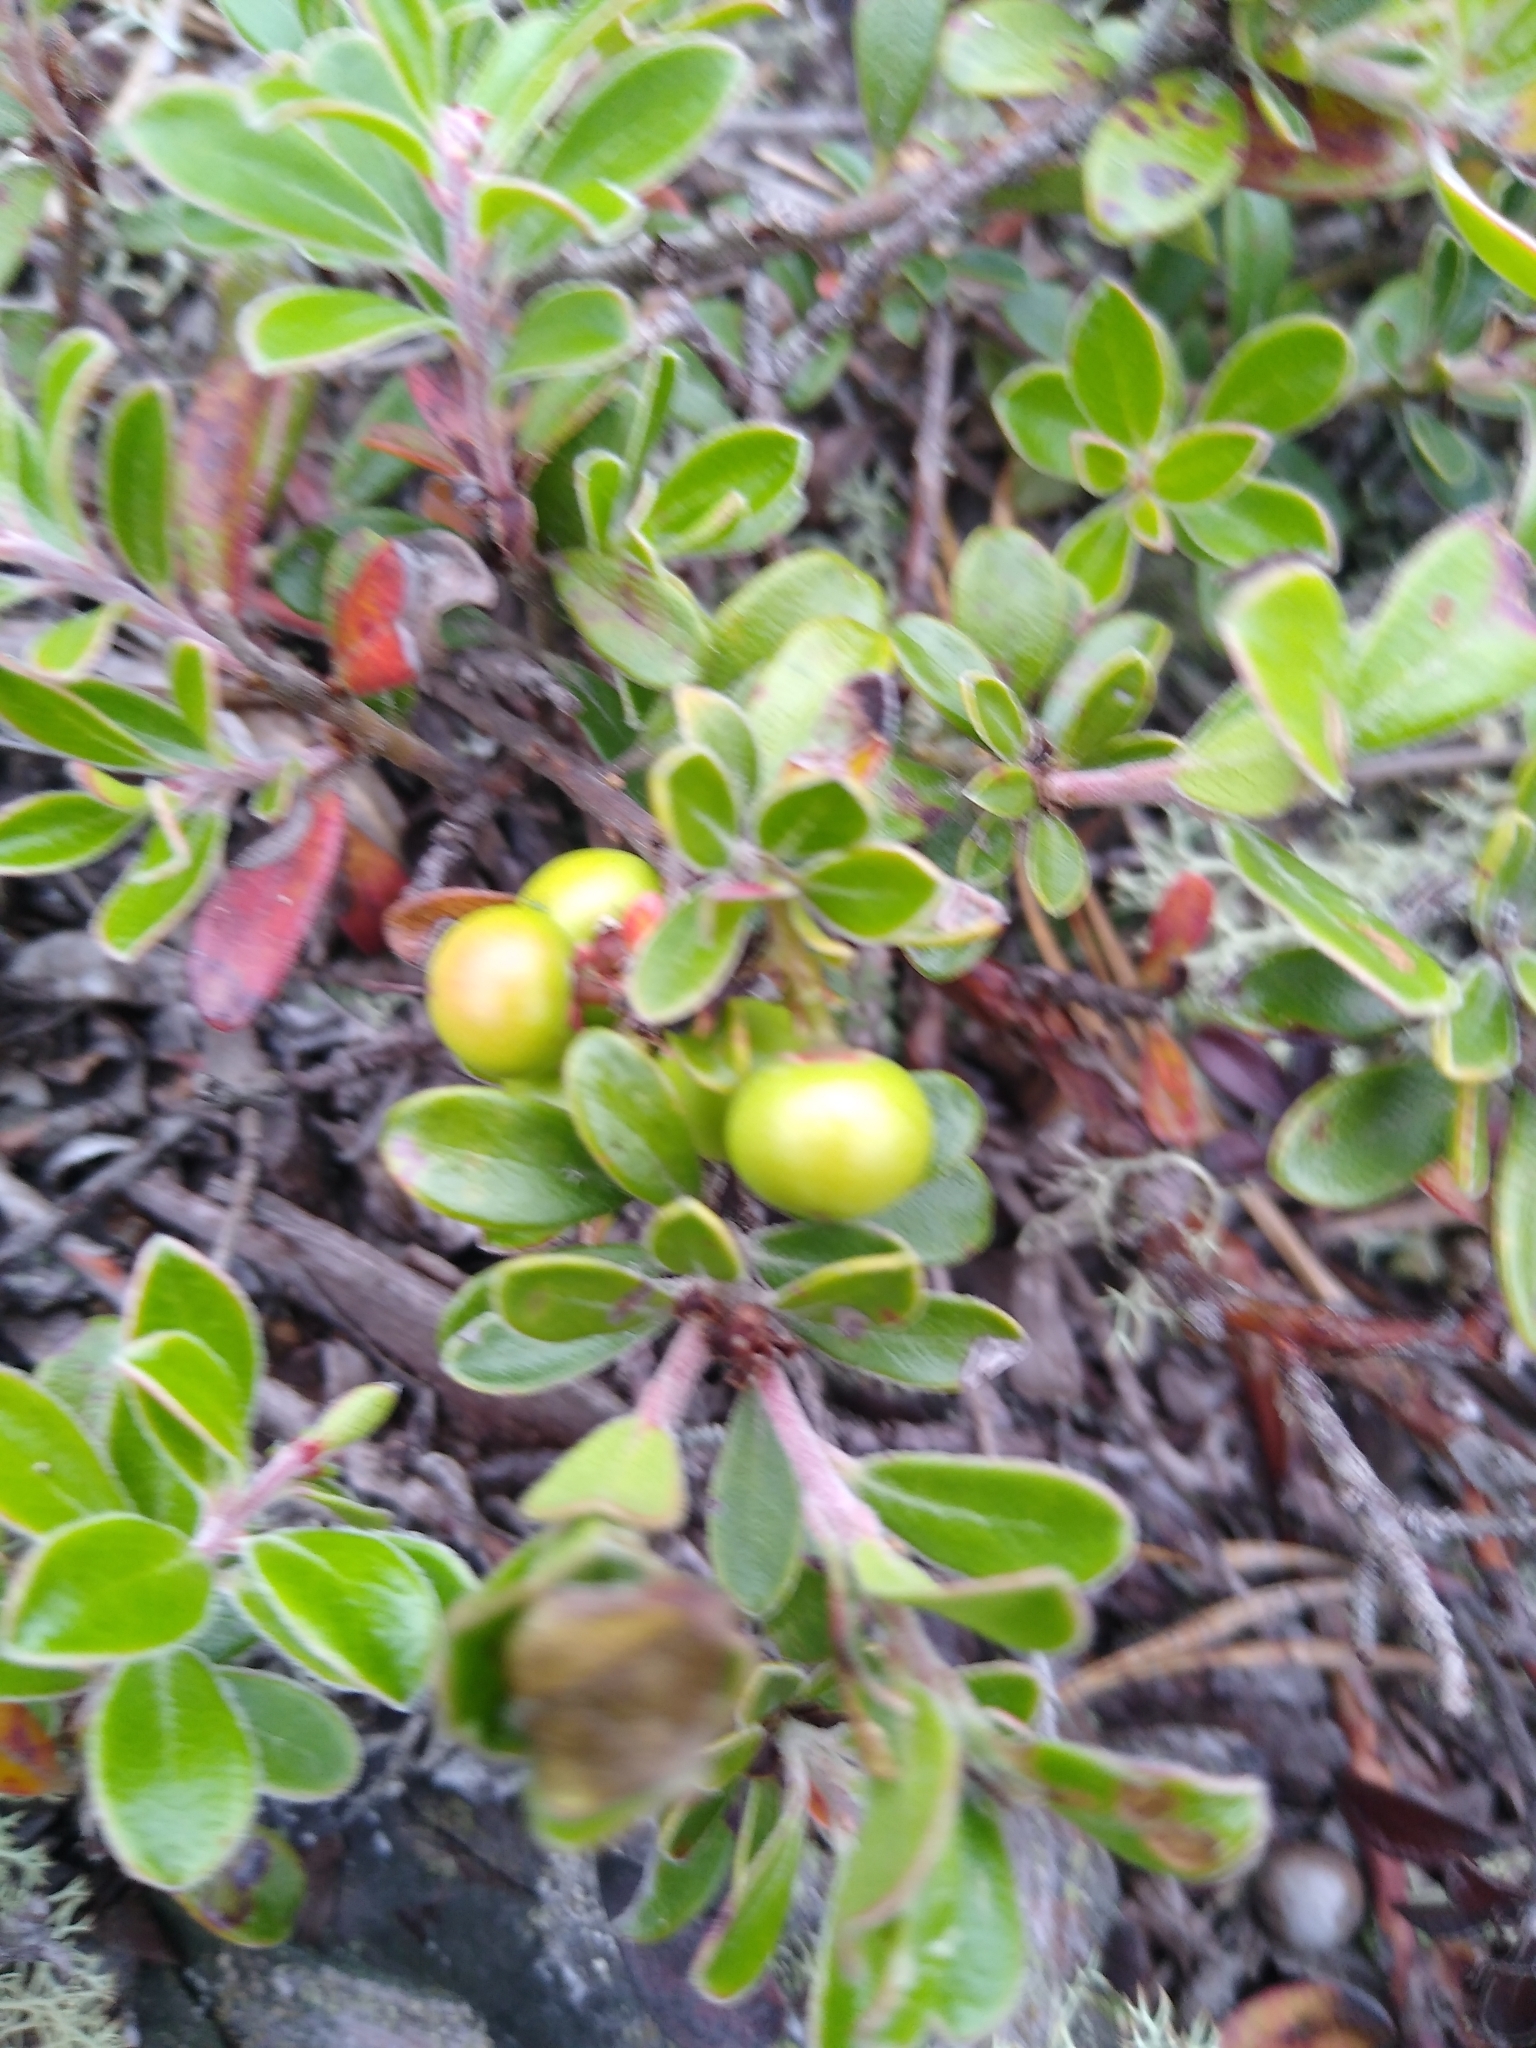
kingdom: Plantae
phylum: Tracheophyta
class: Magnoliopsida
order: Ericales
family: Ericaceae
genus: Arctostaphylos
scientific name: Arctostaphylos uva-ursi
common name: Bearberry
